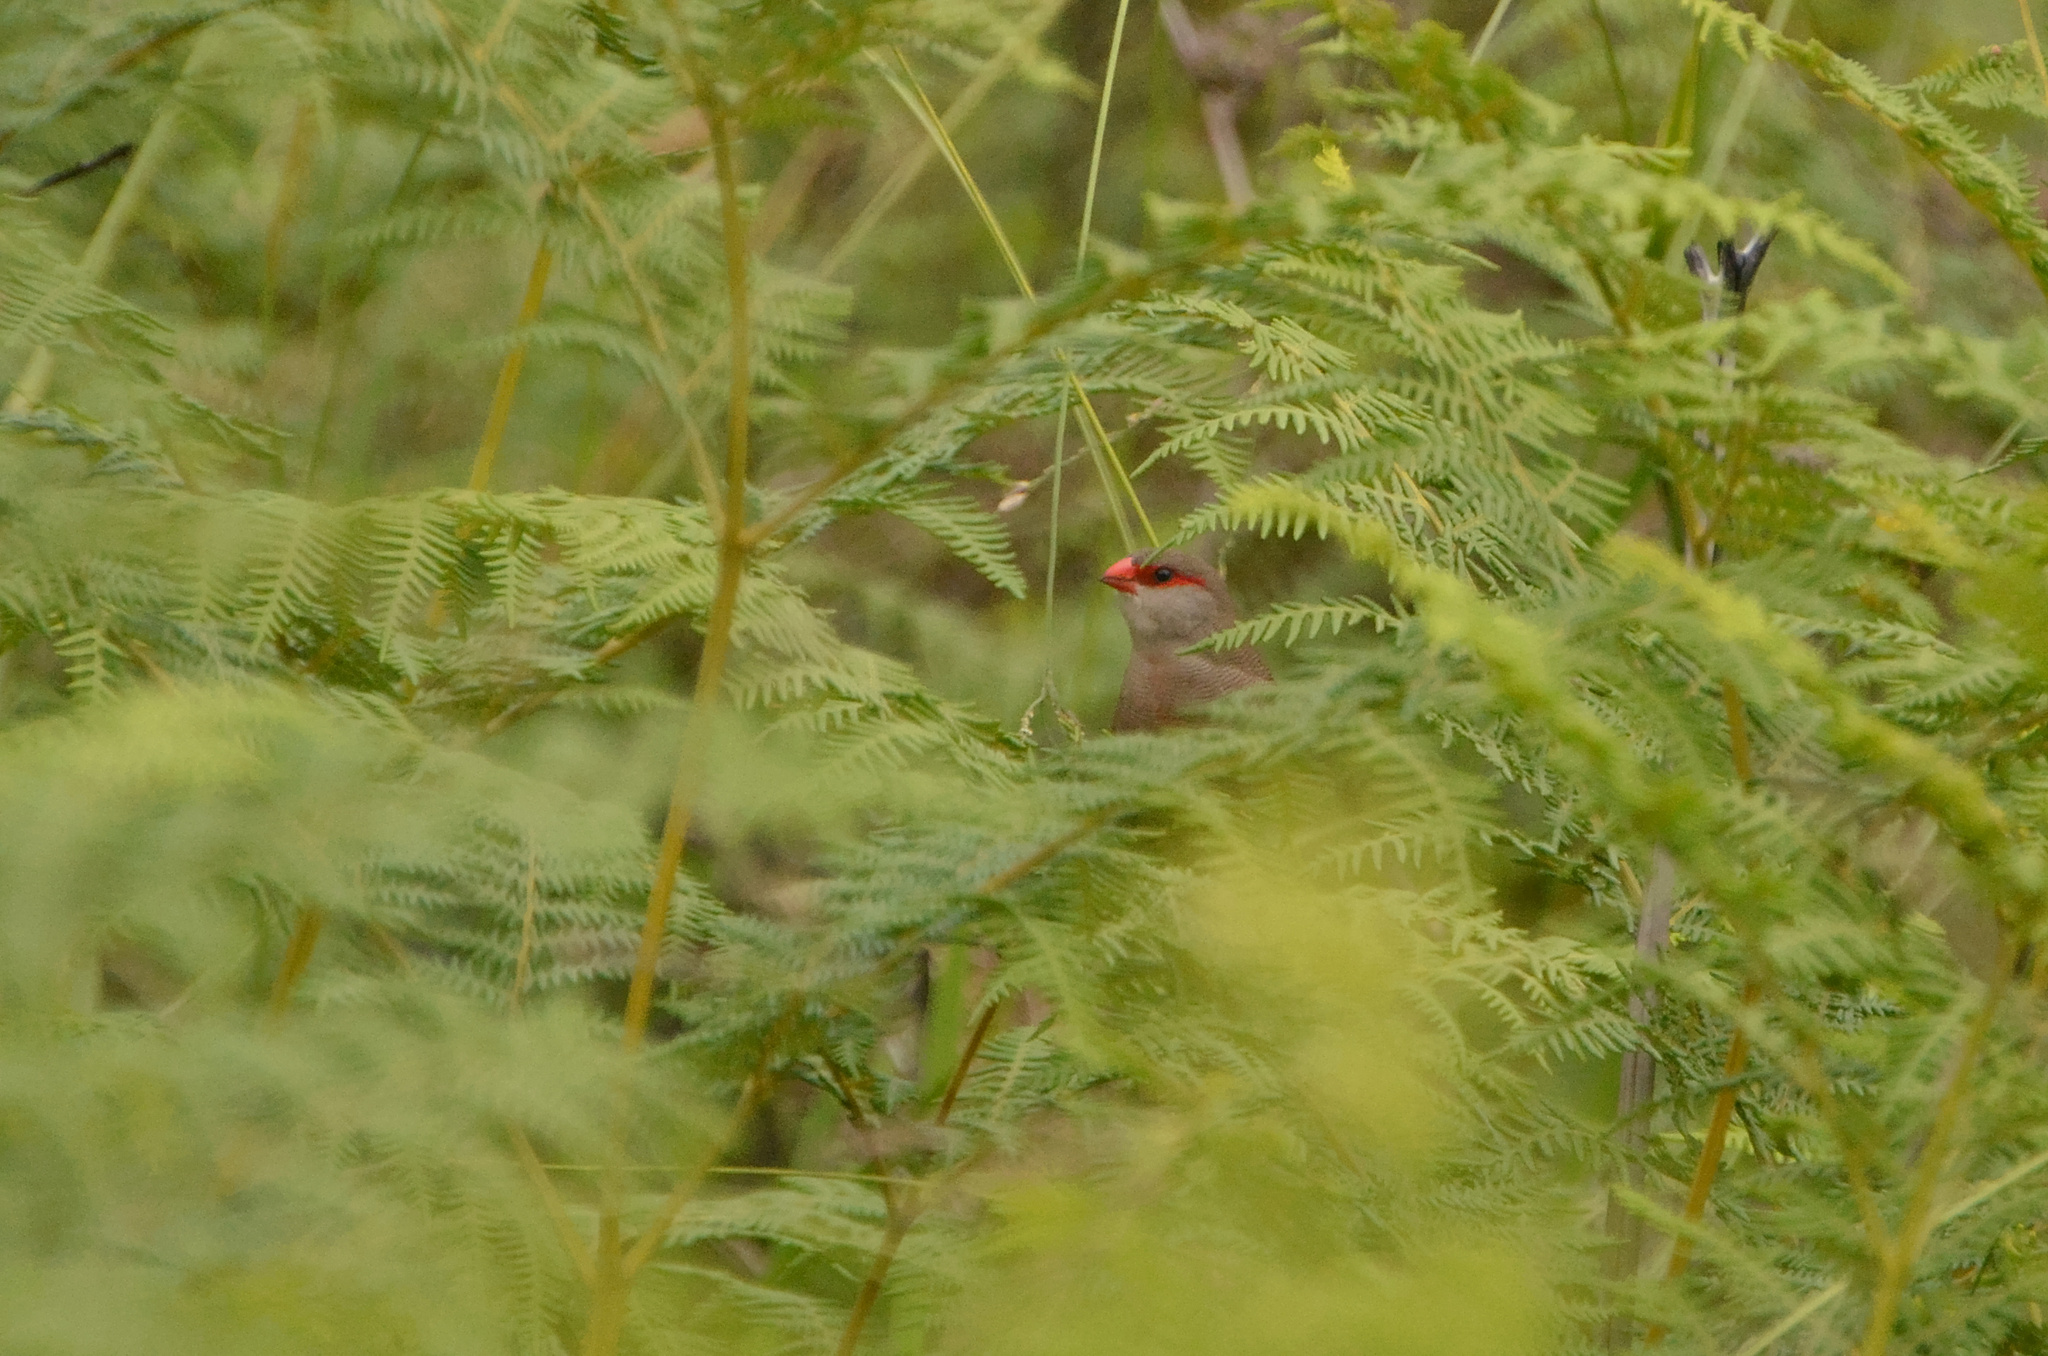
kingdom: Animalia
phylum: Chordata
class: Aves
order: Passeriformes
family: Estrildidae
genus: Estrilda
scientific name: Estrilda astrild
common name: Common waxbill
